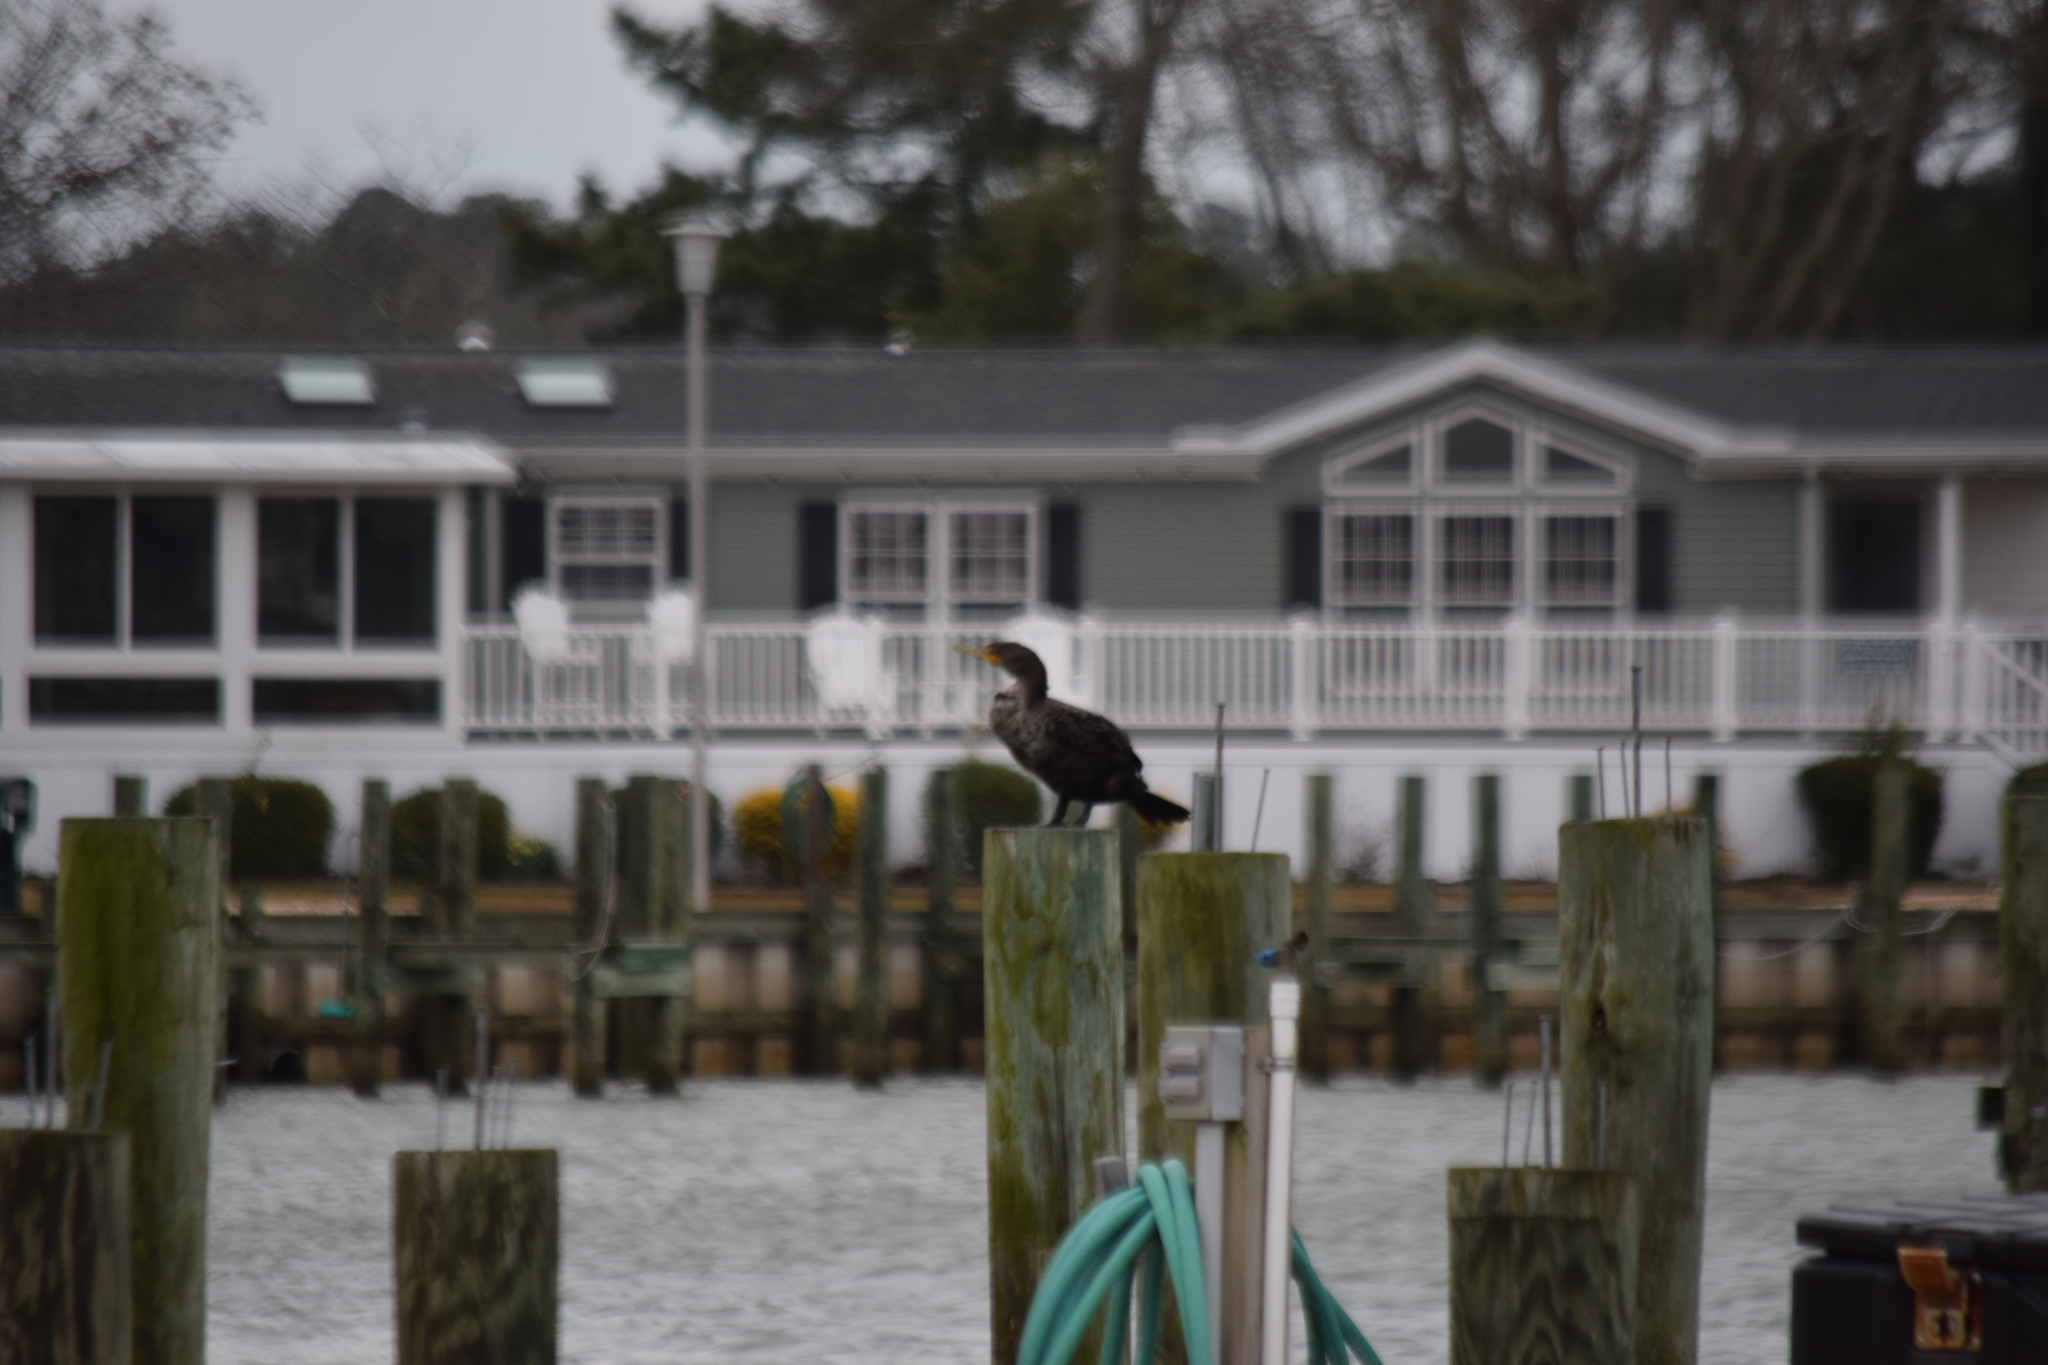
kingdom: Animalia
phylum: Chordata
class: Aves
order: Suliformes
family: Phalacrocoracidae
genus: Phalacrocorax
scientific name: Phalacrocorax auritus
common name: Double-crested cormorant
